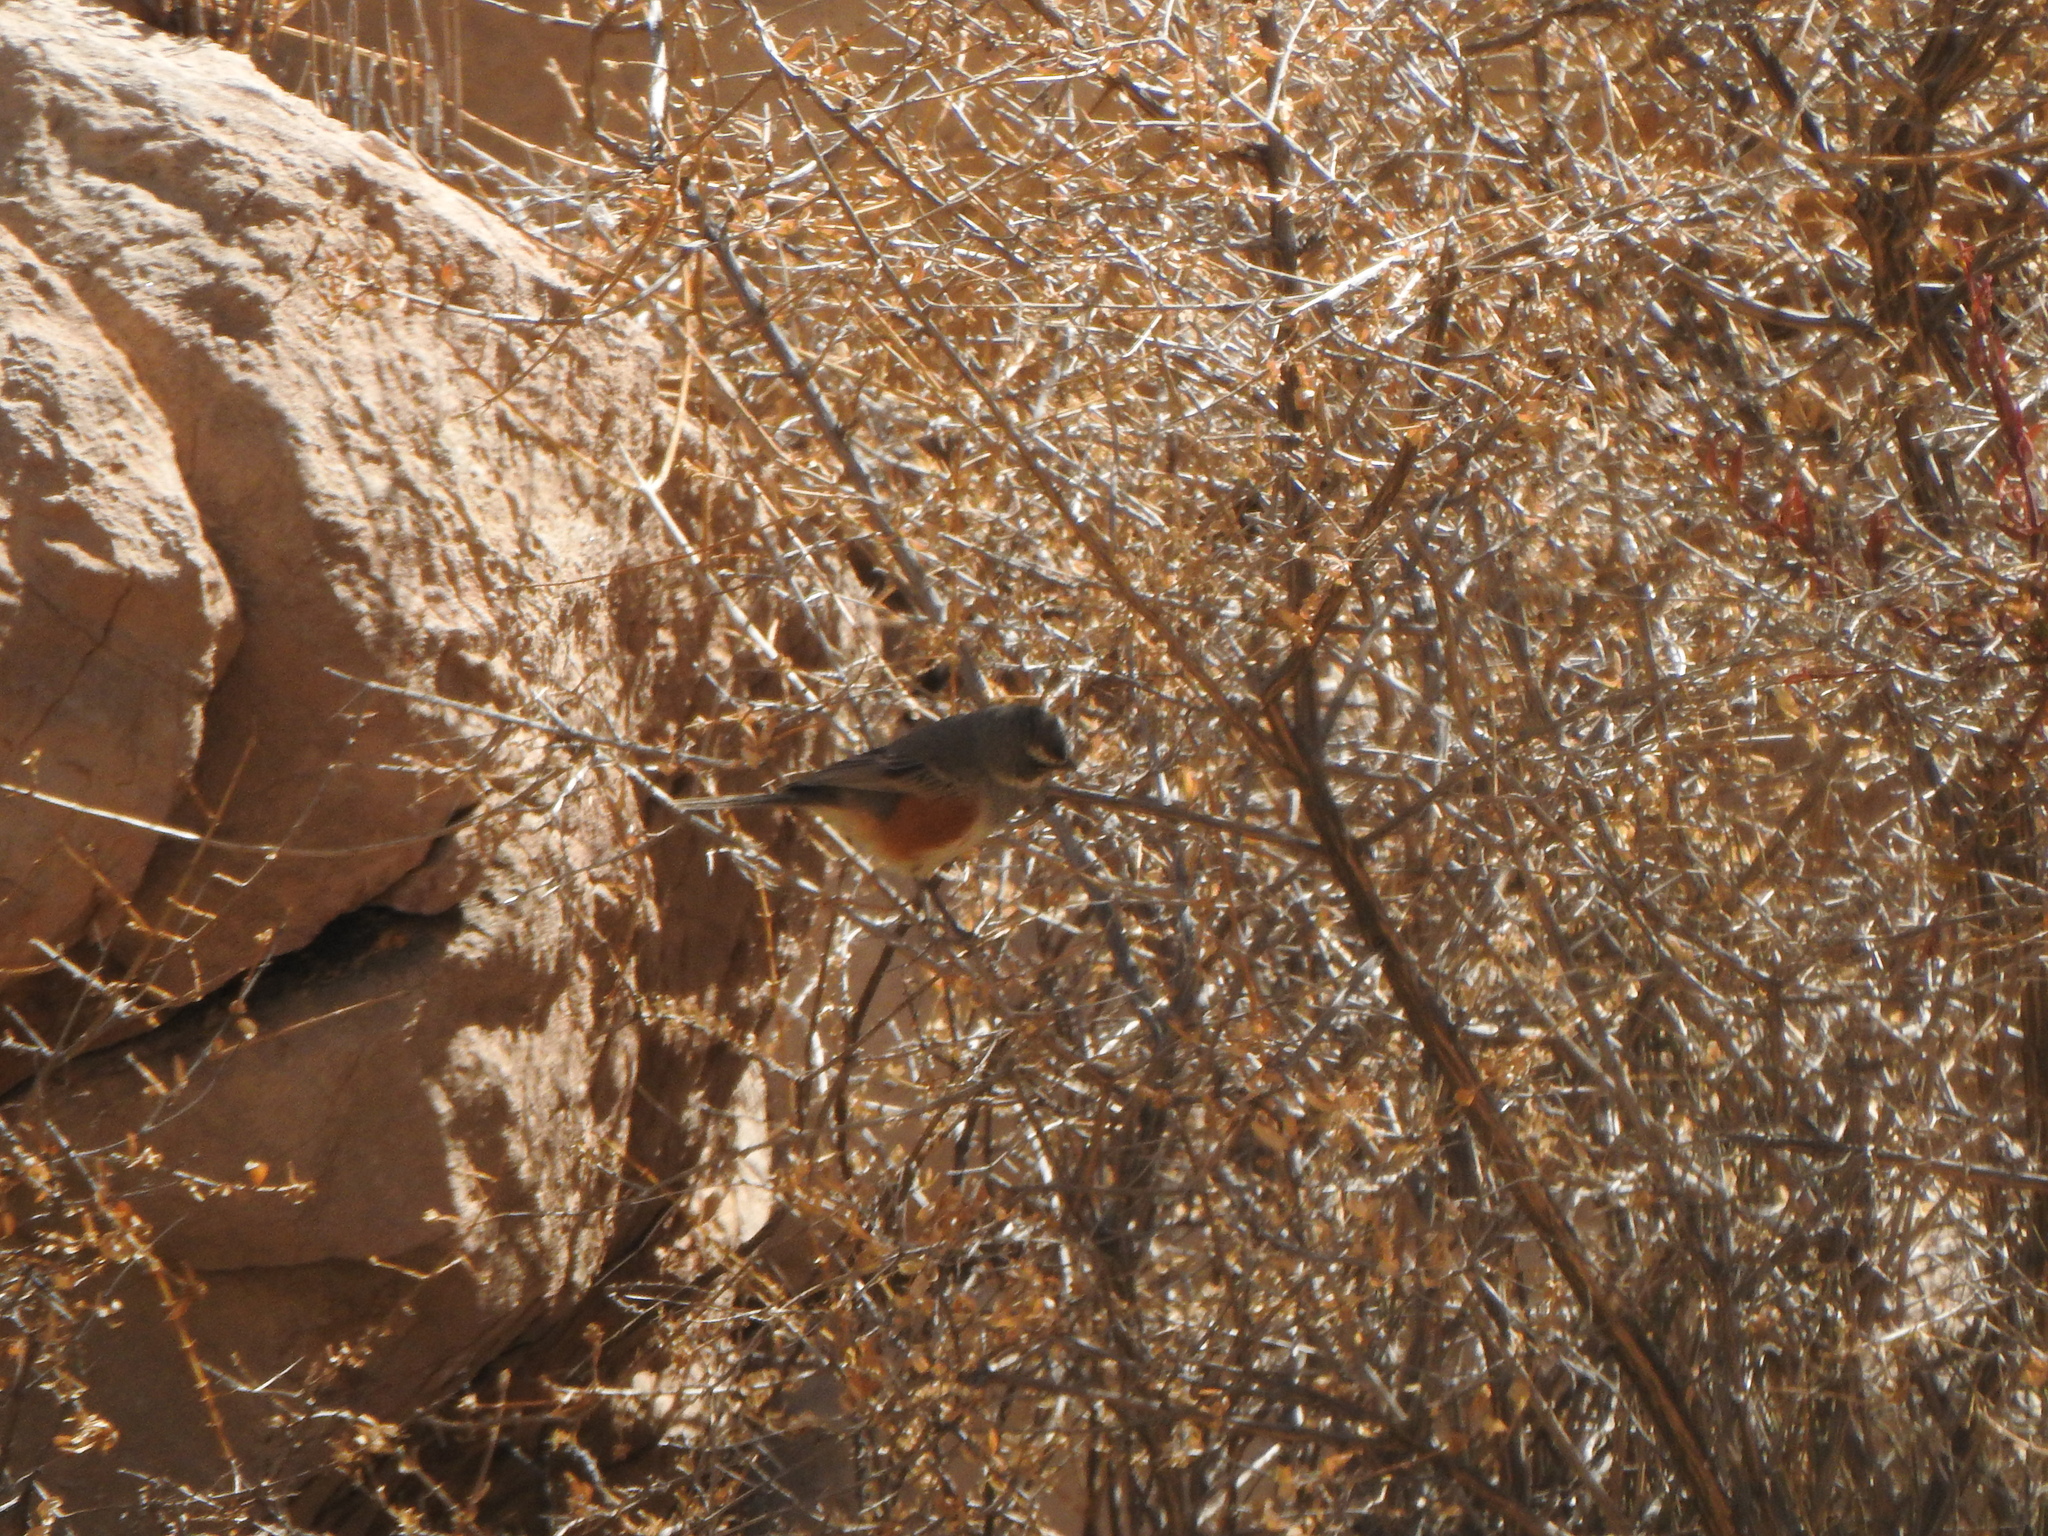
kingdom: Animalia
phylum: Chordata
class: Aves
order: Passeriformes
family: Thraupidae
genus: Poospizopsis
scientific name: Poospizopsis hypocondria
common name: Rufous-sided warbling-finch
